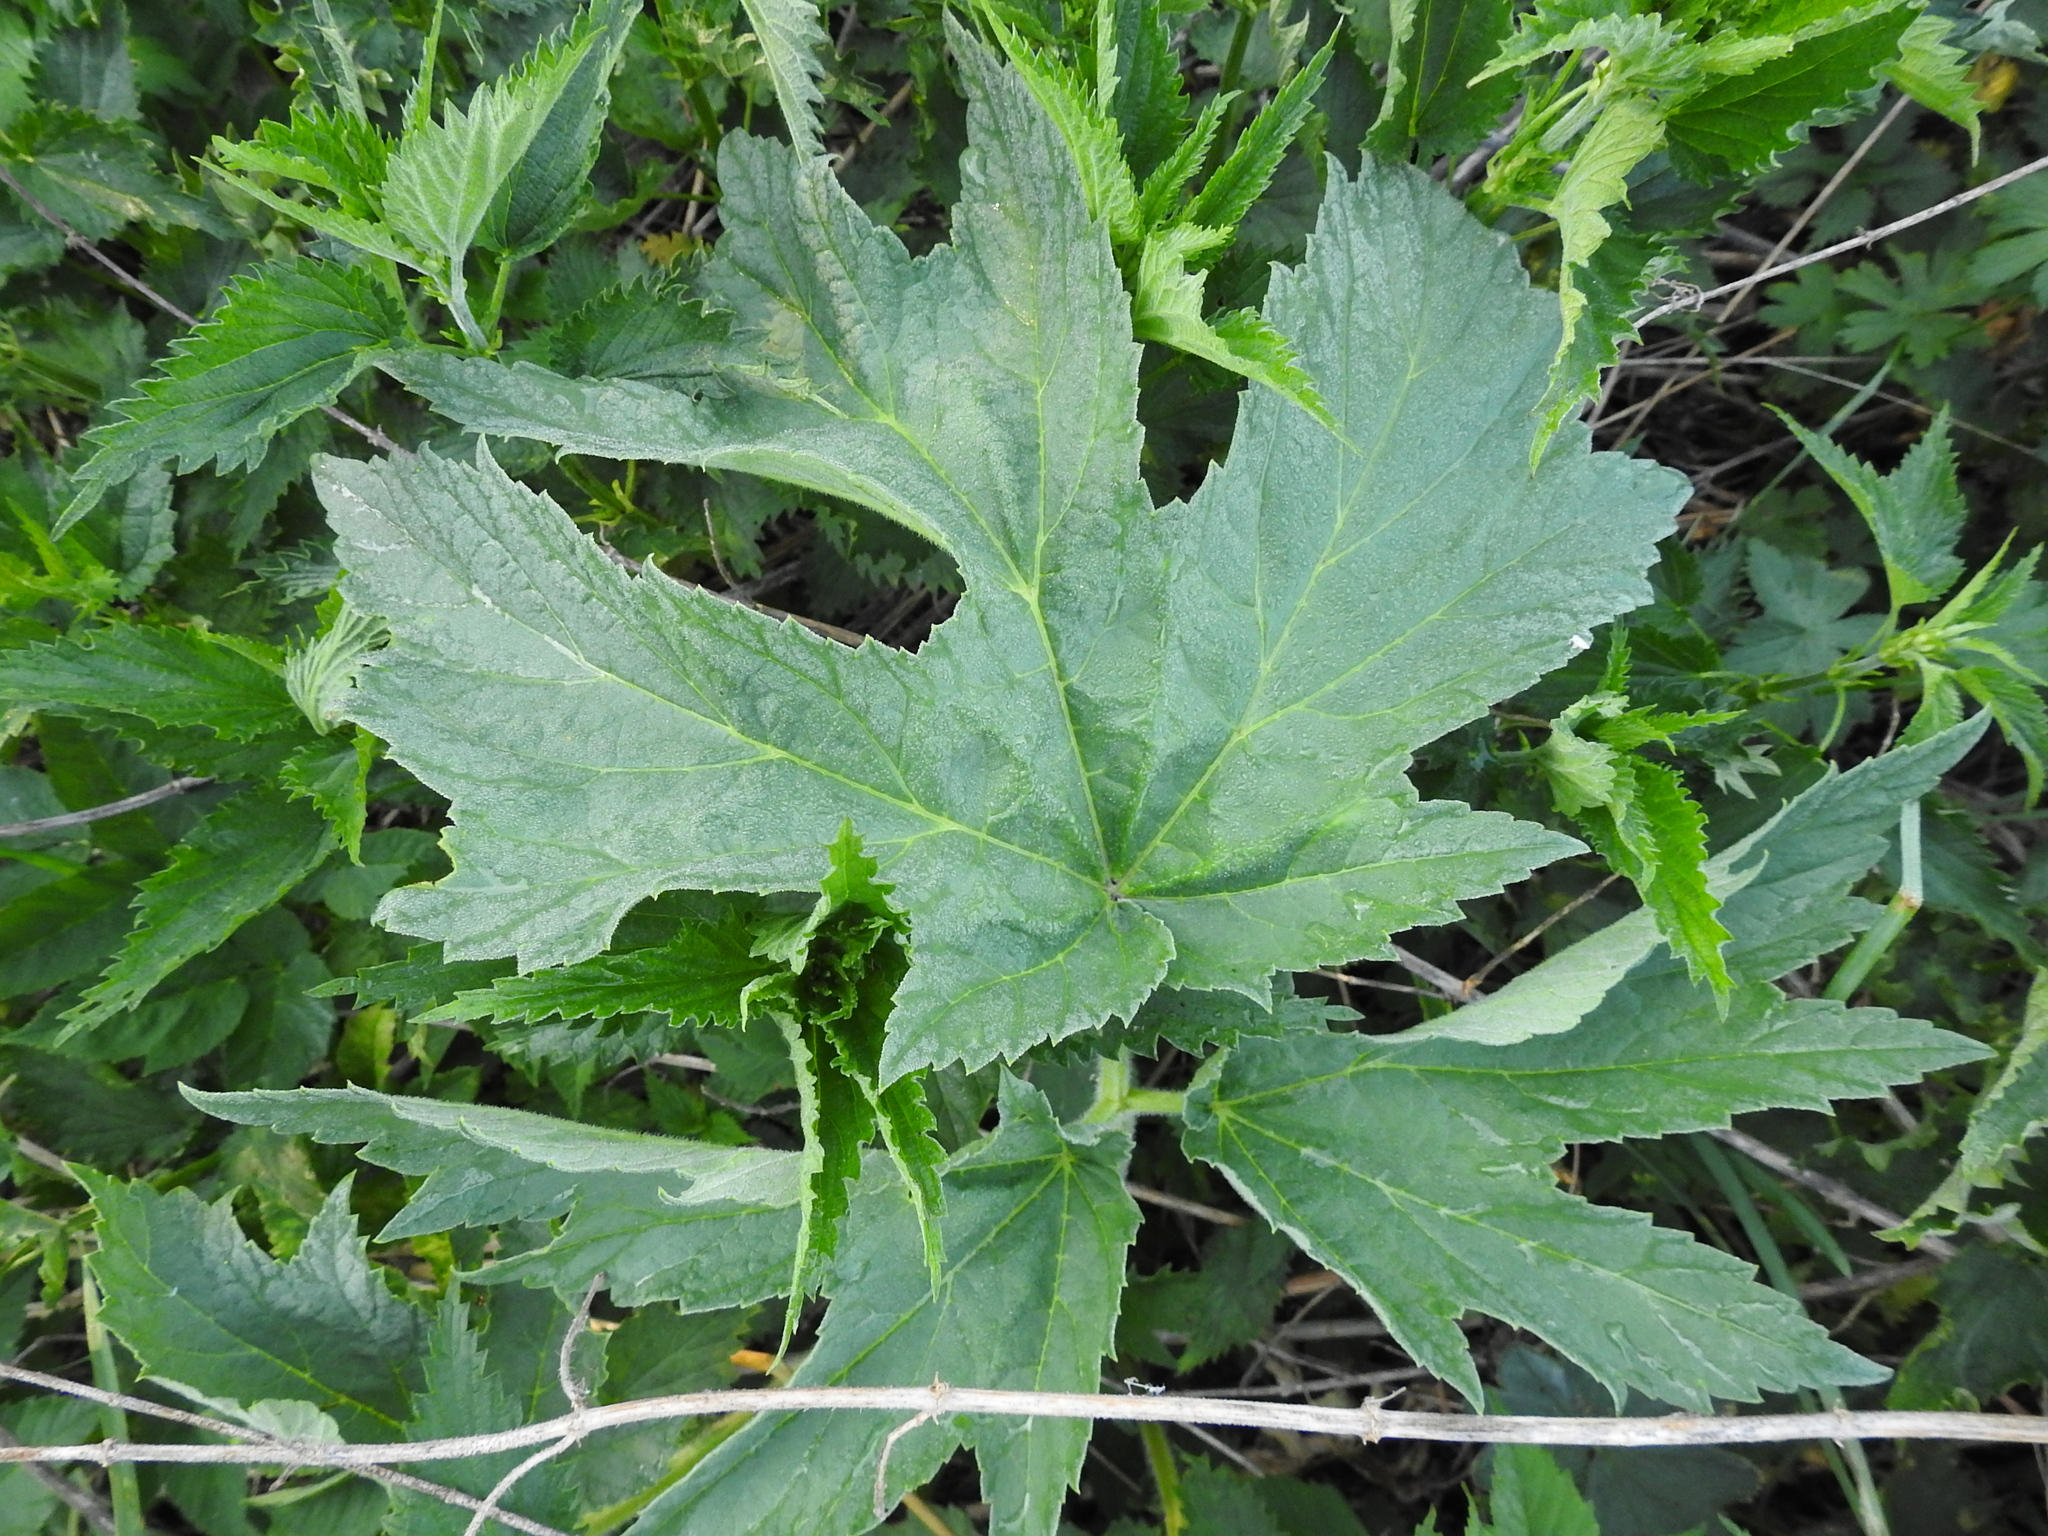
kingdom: Plantae
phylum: Tracheophyta
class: Magnoliopsida
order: Apiales
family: Apiaceae
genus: Heracleum
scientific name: Heracleum sphondylium
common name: Hogweed
